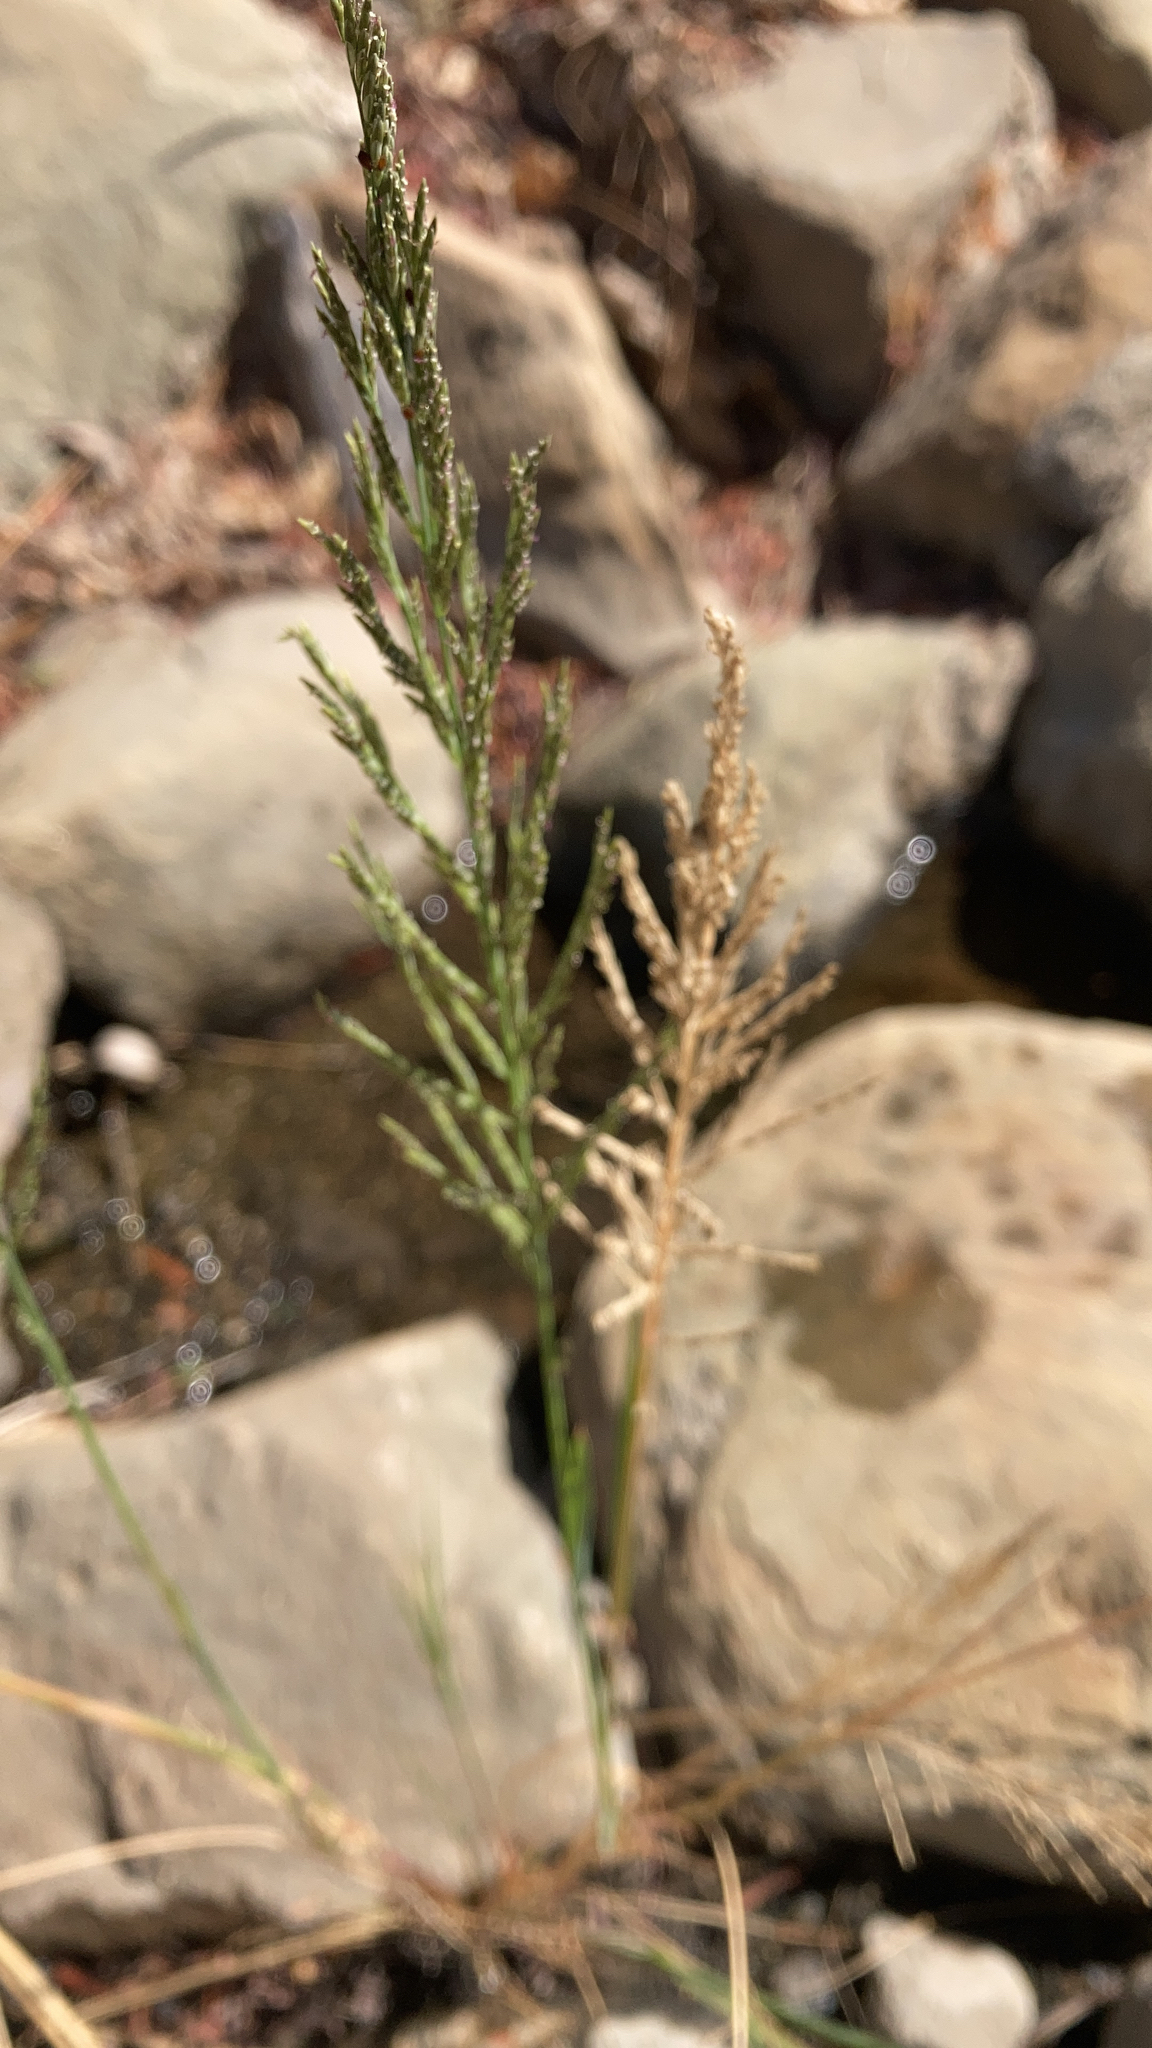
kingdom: Plantae
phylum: Tracheophyta
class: Liliopsida
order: Poales
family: Poaceae
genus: Diplachne
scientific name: Diplachne fusca
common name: Brown beetle grass
